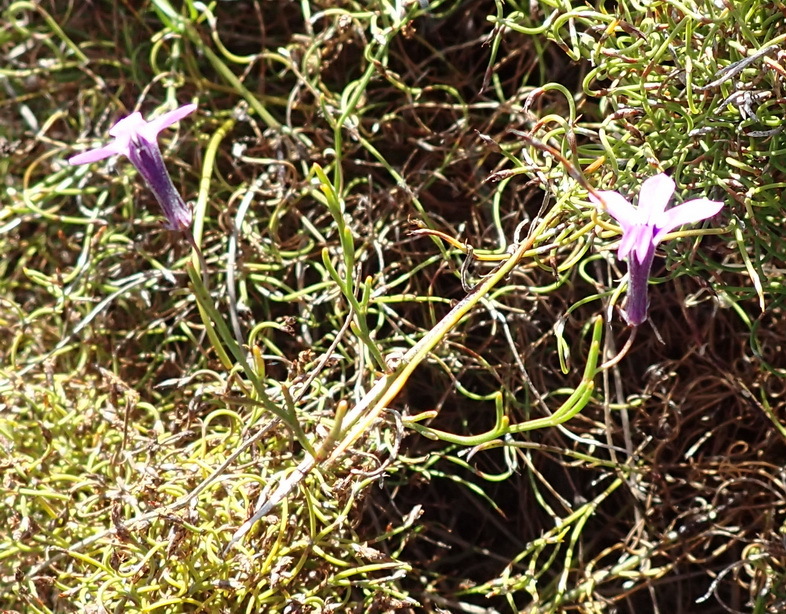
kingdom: Plantae
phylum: Tracheophyta
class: Magnoliopsida
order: Asterales
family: Campanulaceae
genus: Lobelia
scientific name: Lobelia setacea
